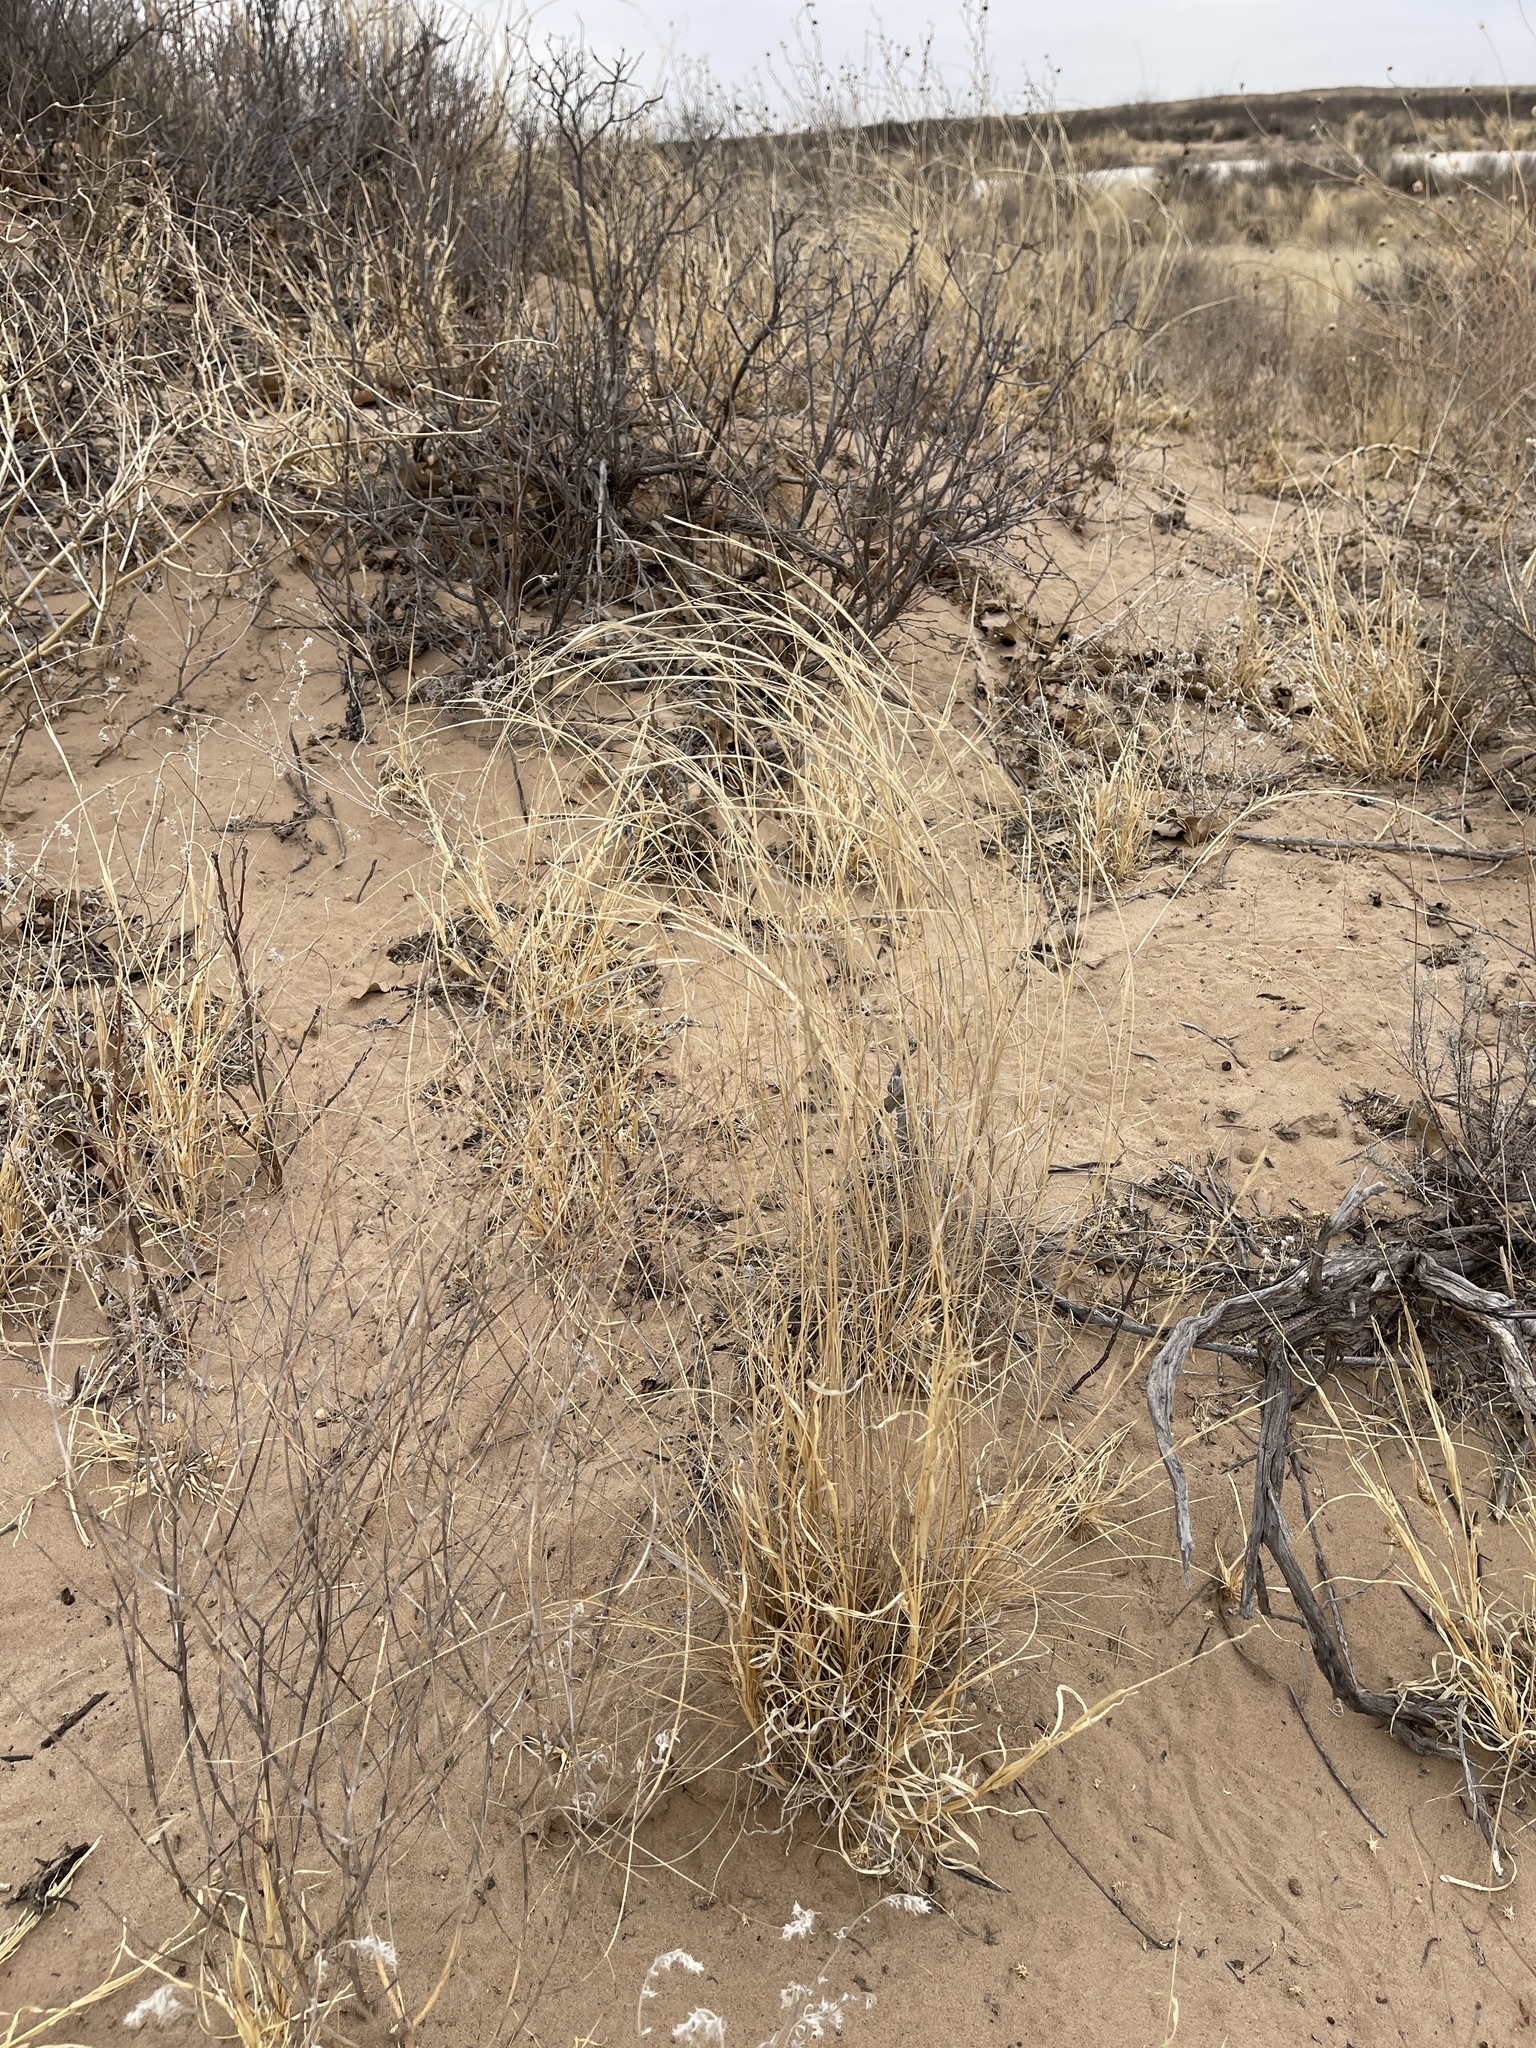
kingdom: Plantae
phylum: Tracheophyta
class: Liliopsida
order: Poales
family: Poaceae
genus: Sporobolus
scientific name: Sporobolus cryptandrus
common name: Sand dropseed
